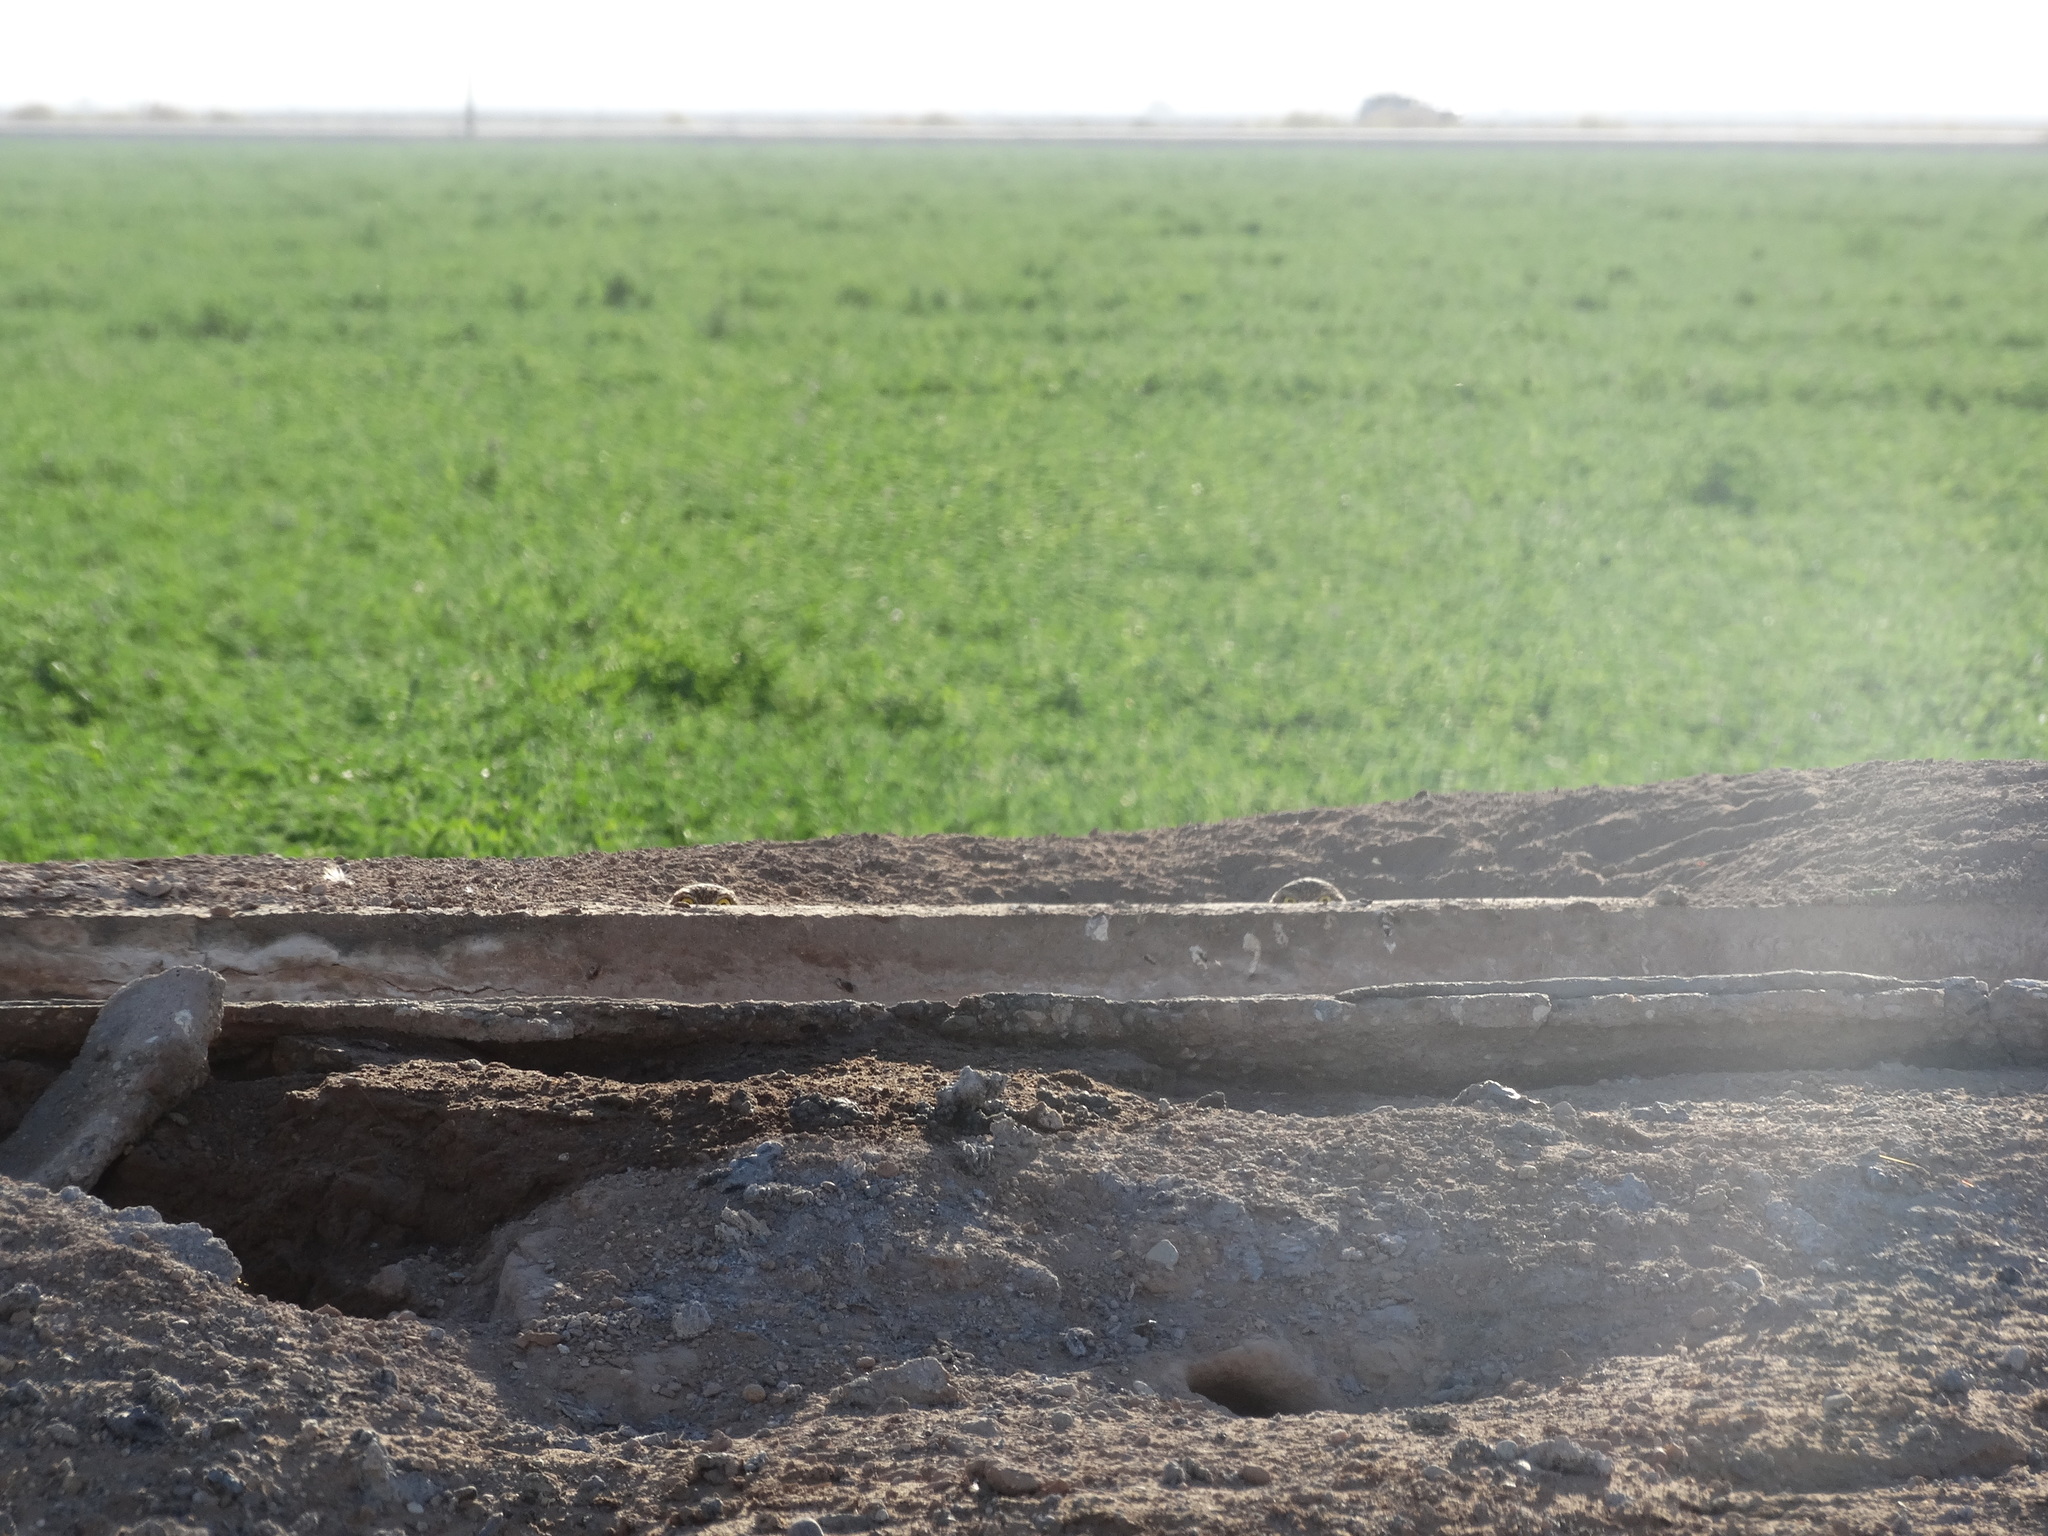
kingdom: Animalia
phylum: Chordata
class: Aves
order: Strigiformes
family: Strigidae
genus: Athene
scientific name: Athene cunicularia
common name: Burrowing owl
